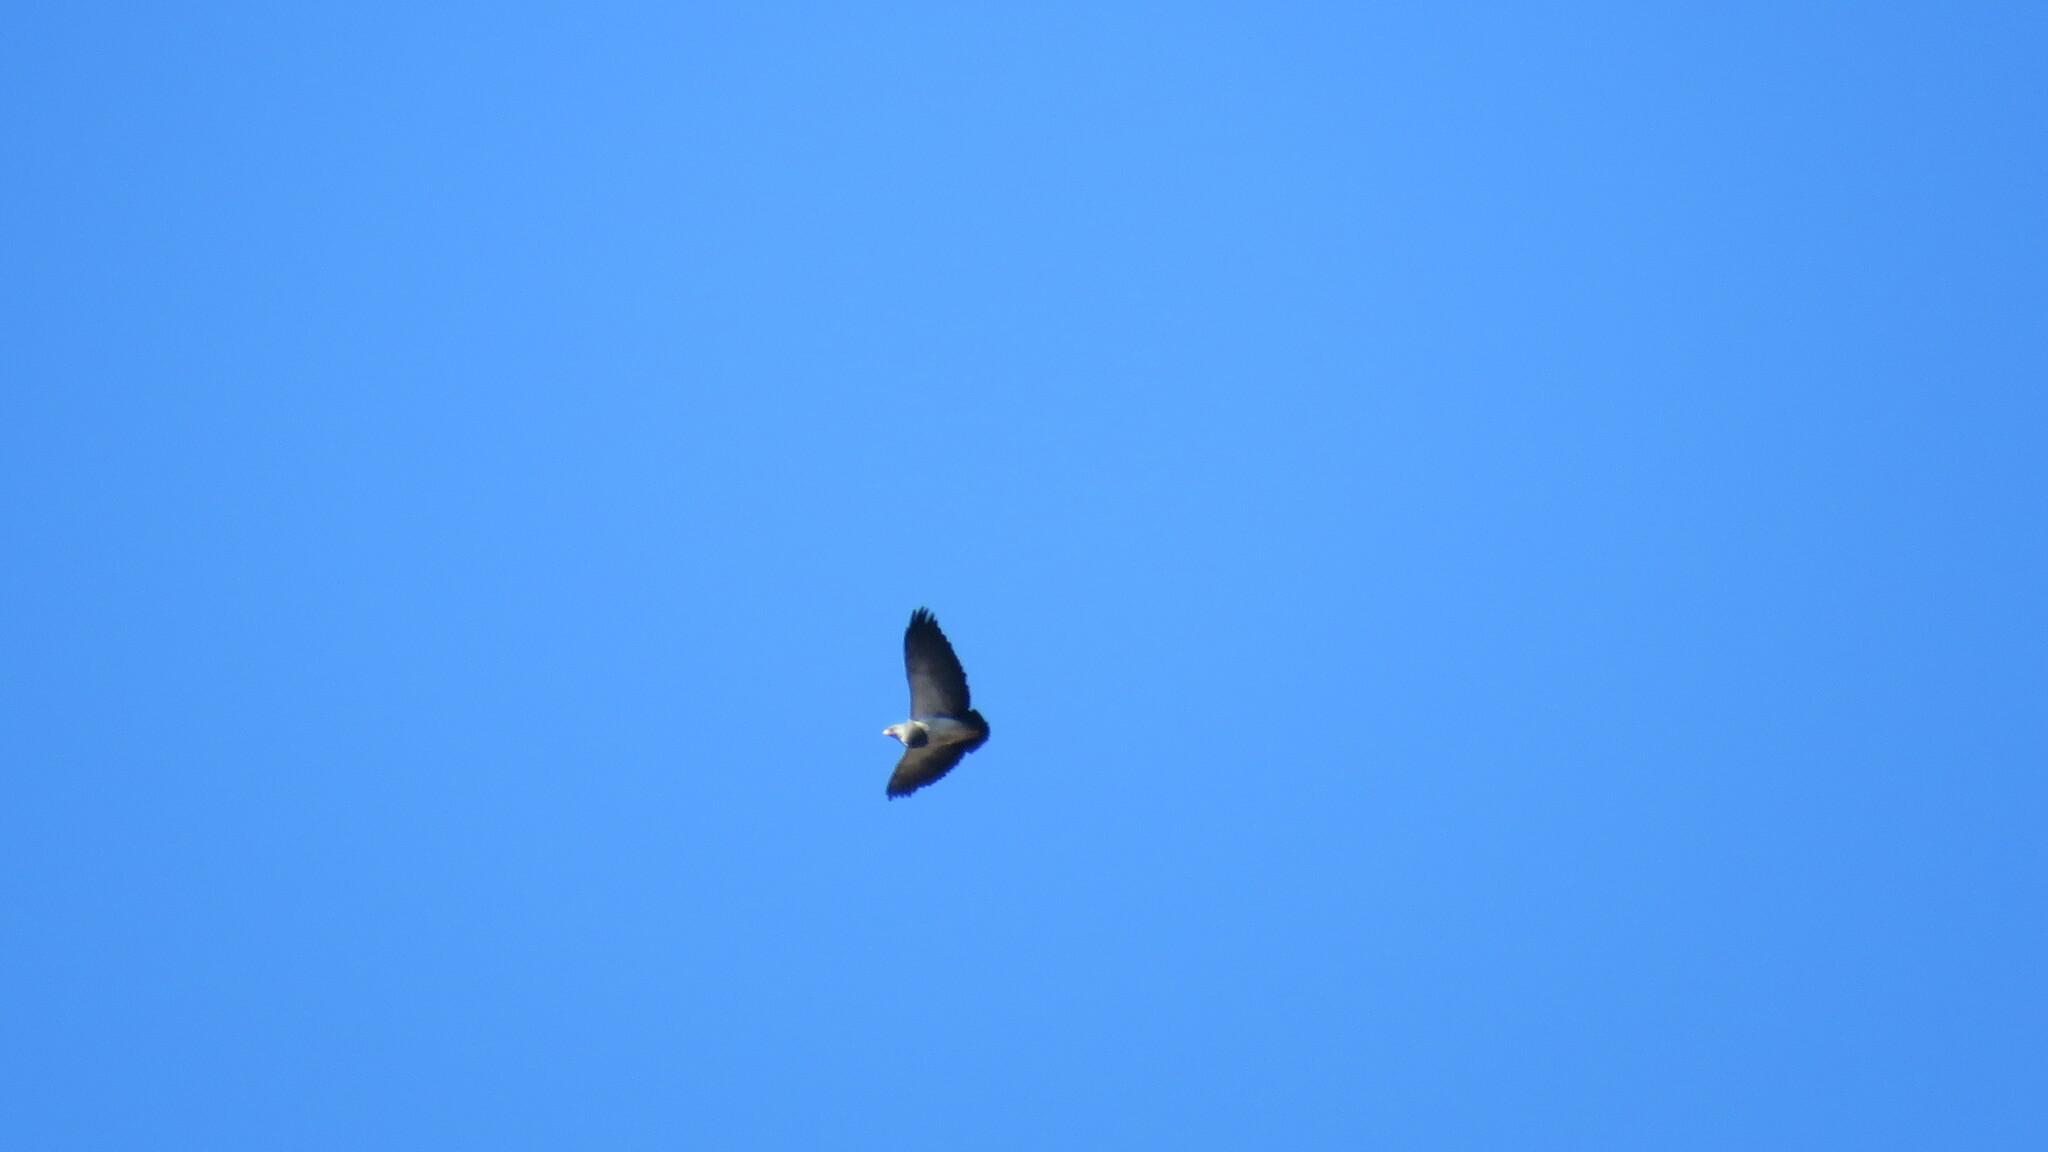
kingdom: Animalia
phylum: Chordata
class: Aves
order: Accipitriformes
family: Accipitridae
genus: Geranoaetus
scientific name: Geranoaetus melanoleucus
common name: Black-chested buzzard-eagle
